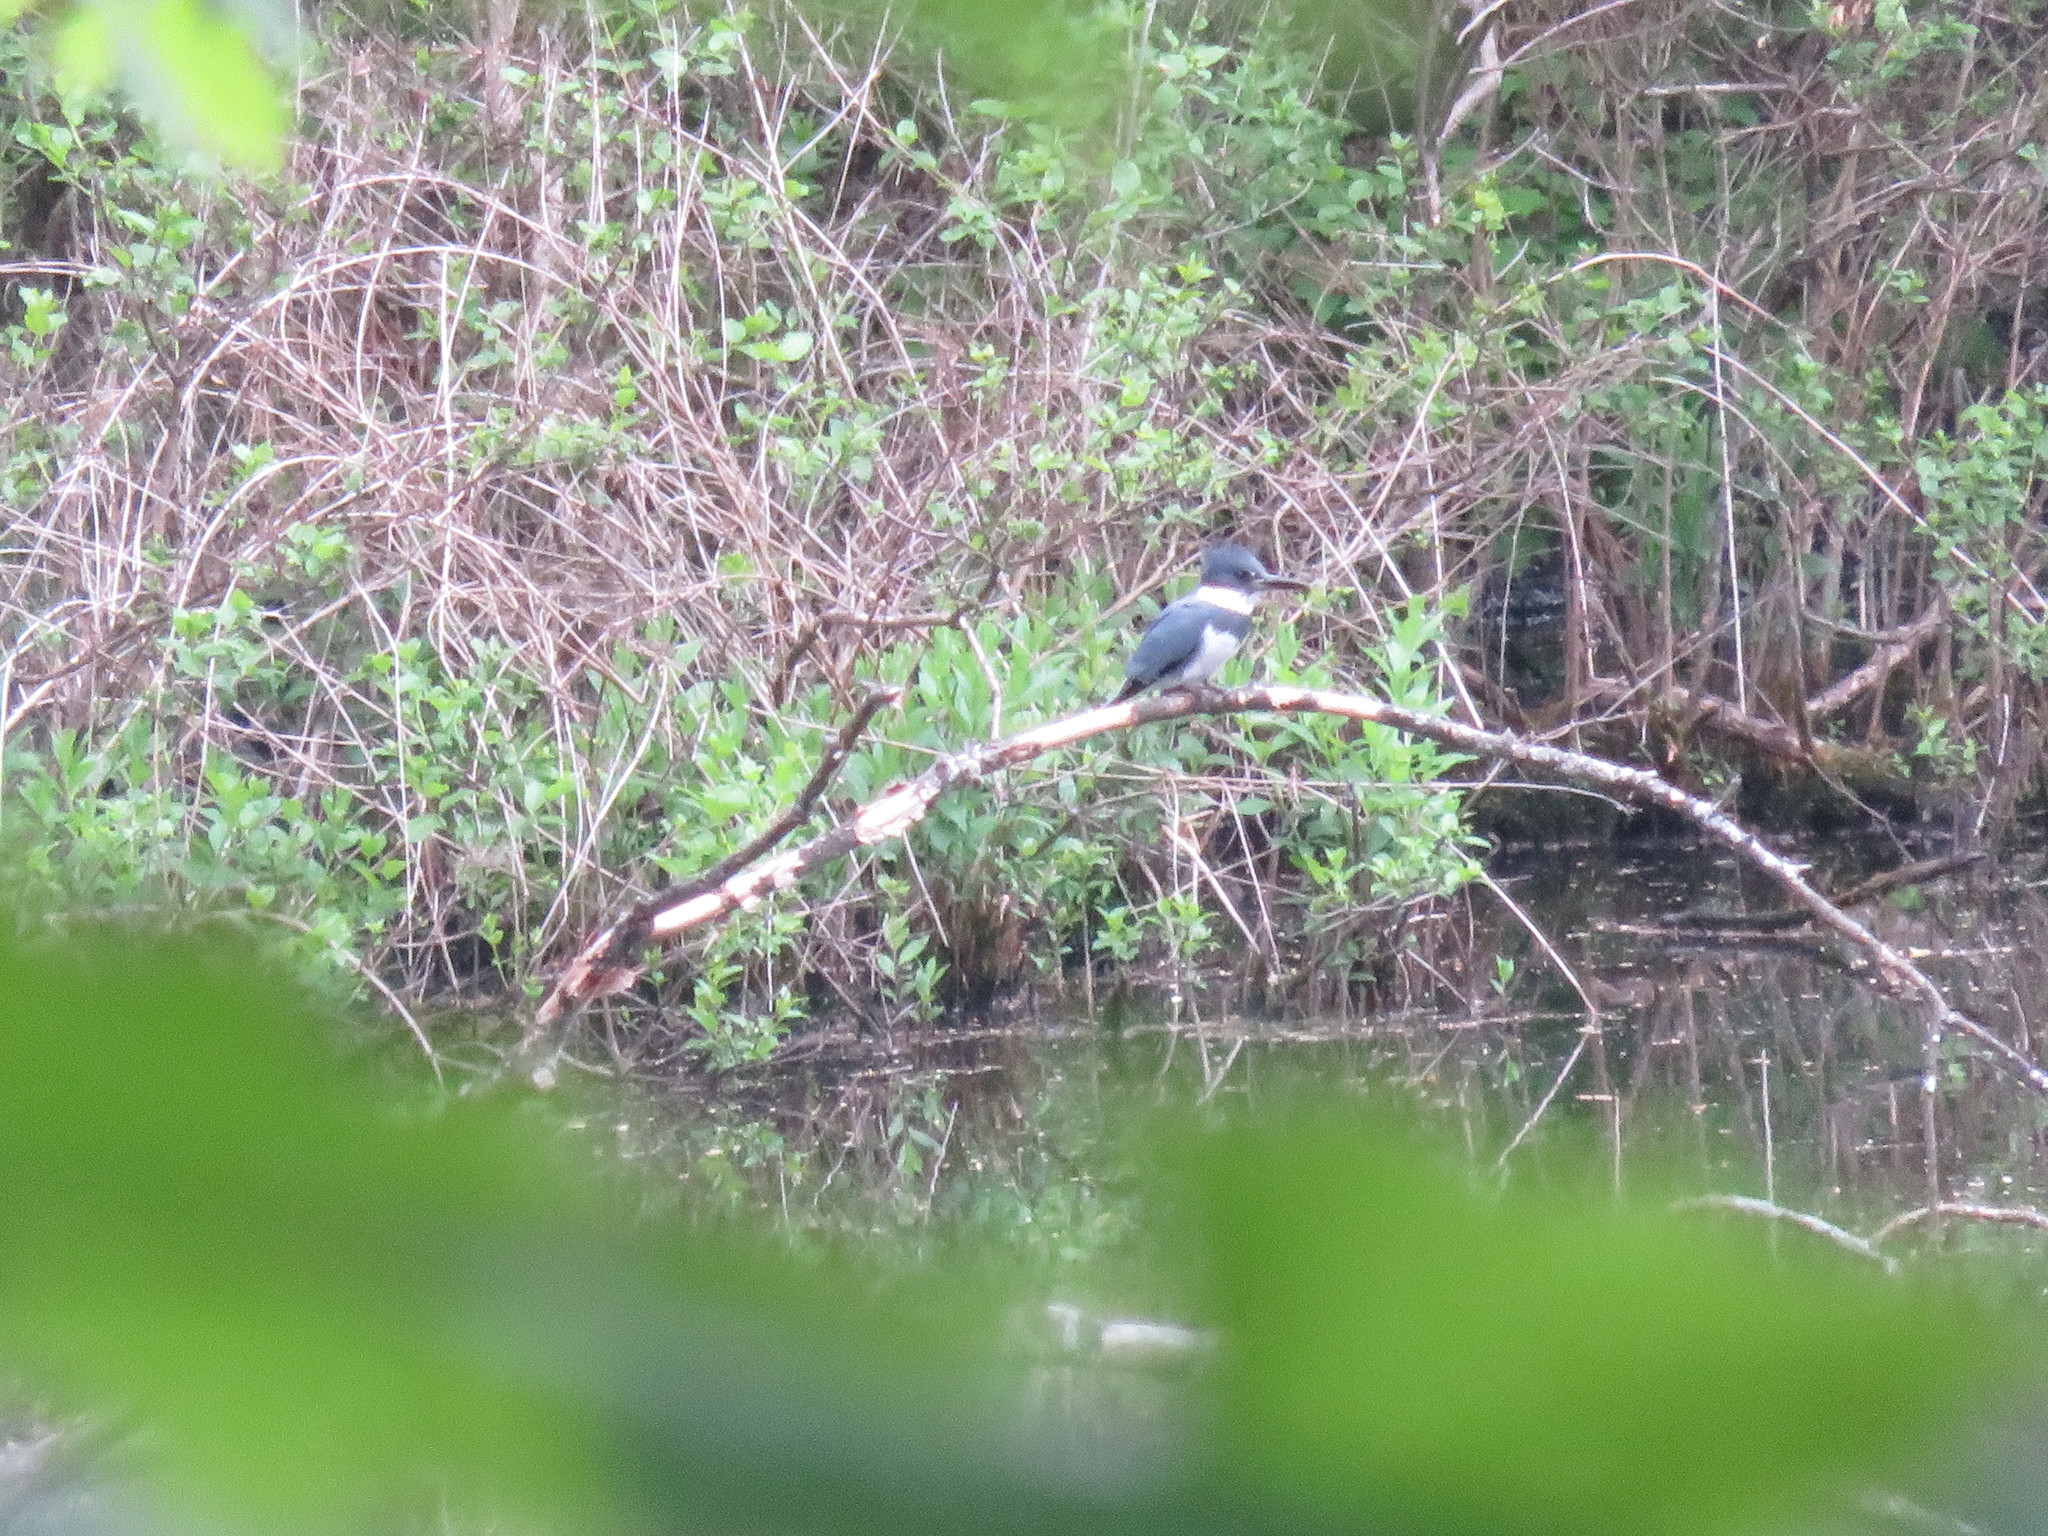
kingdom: Animalia
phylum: Chordata
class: Aves
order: Coraciiformes
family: Alcedinidae
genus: Megaceryle
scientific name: Megaceryle alcyon
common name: Belted kingfisher
